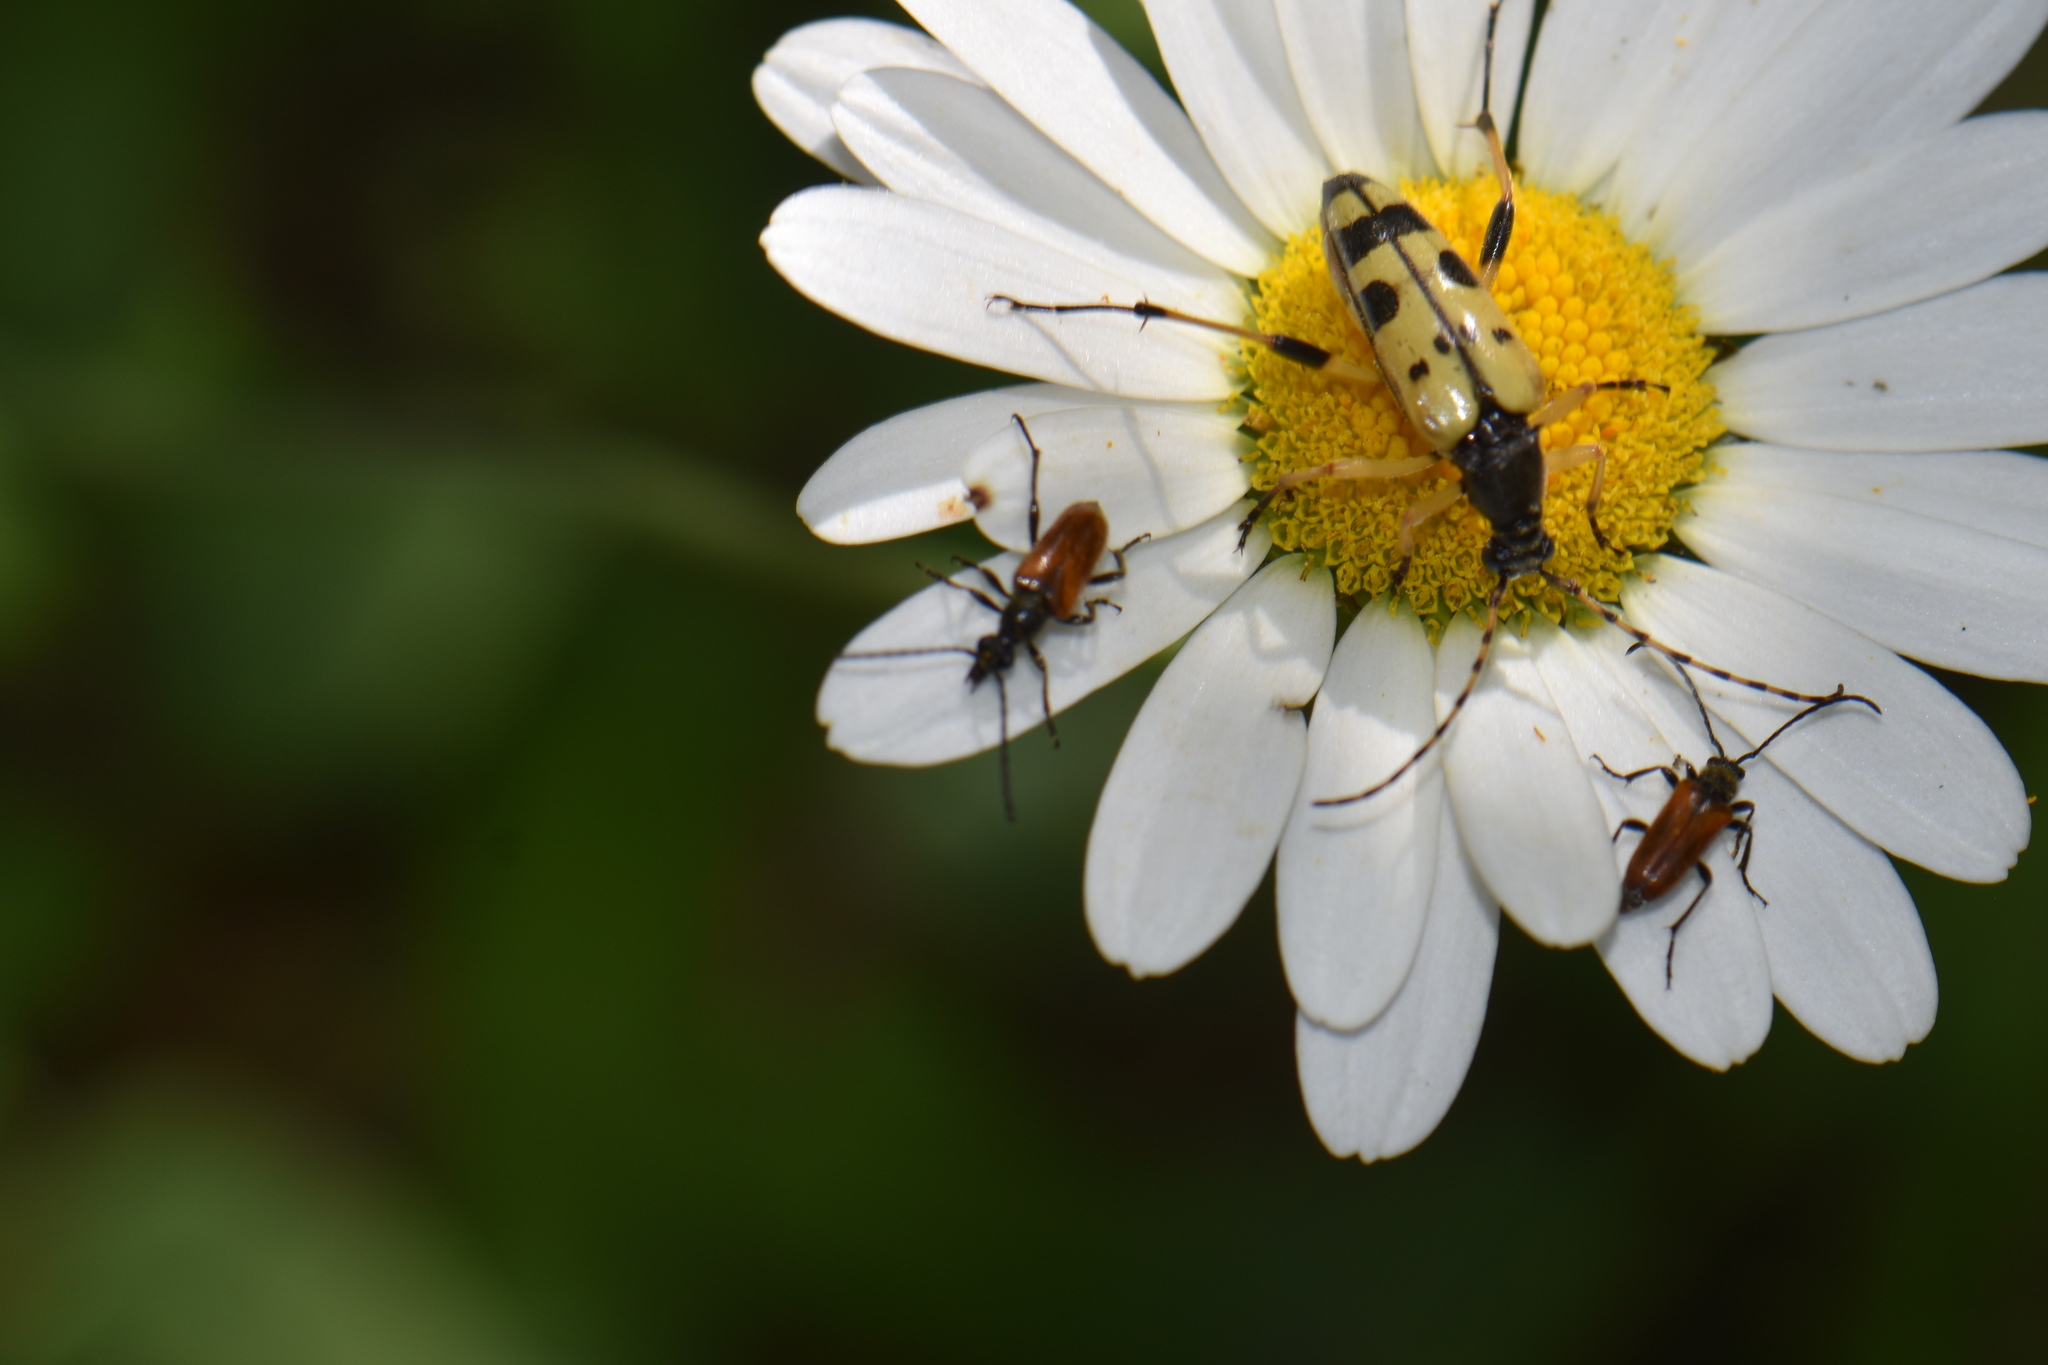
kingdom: Animalia
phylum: Arthropoda
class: Insecta
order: Coleoptera
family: Cerambycidae
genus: Pseudovadonia
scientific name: Pseudovadonia livida
